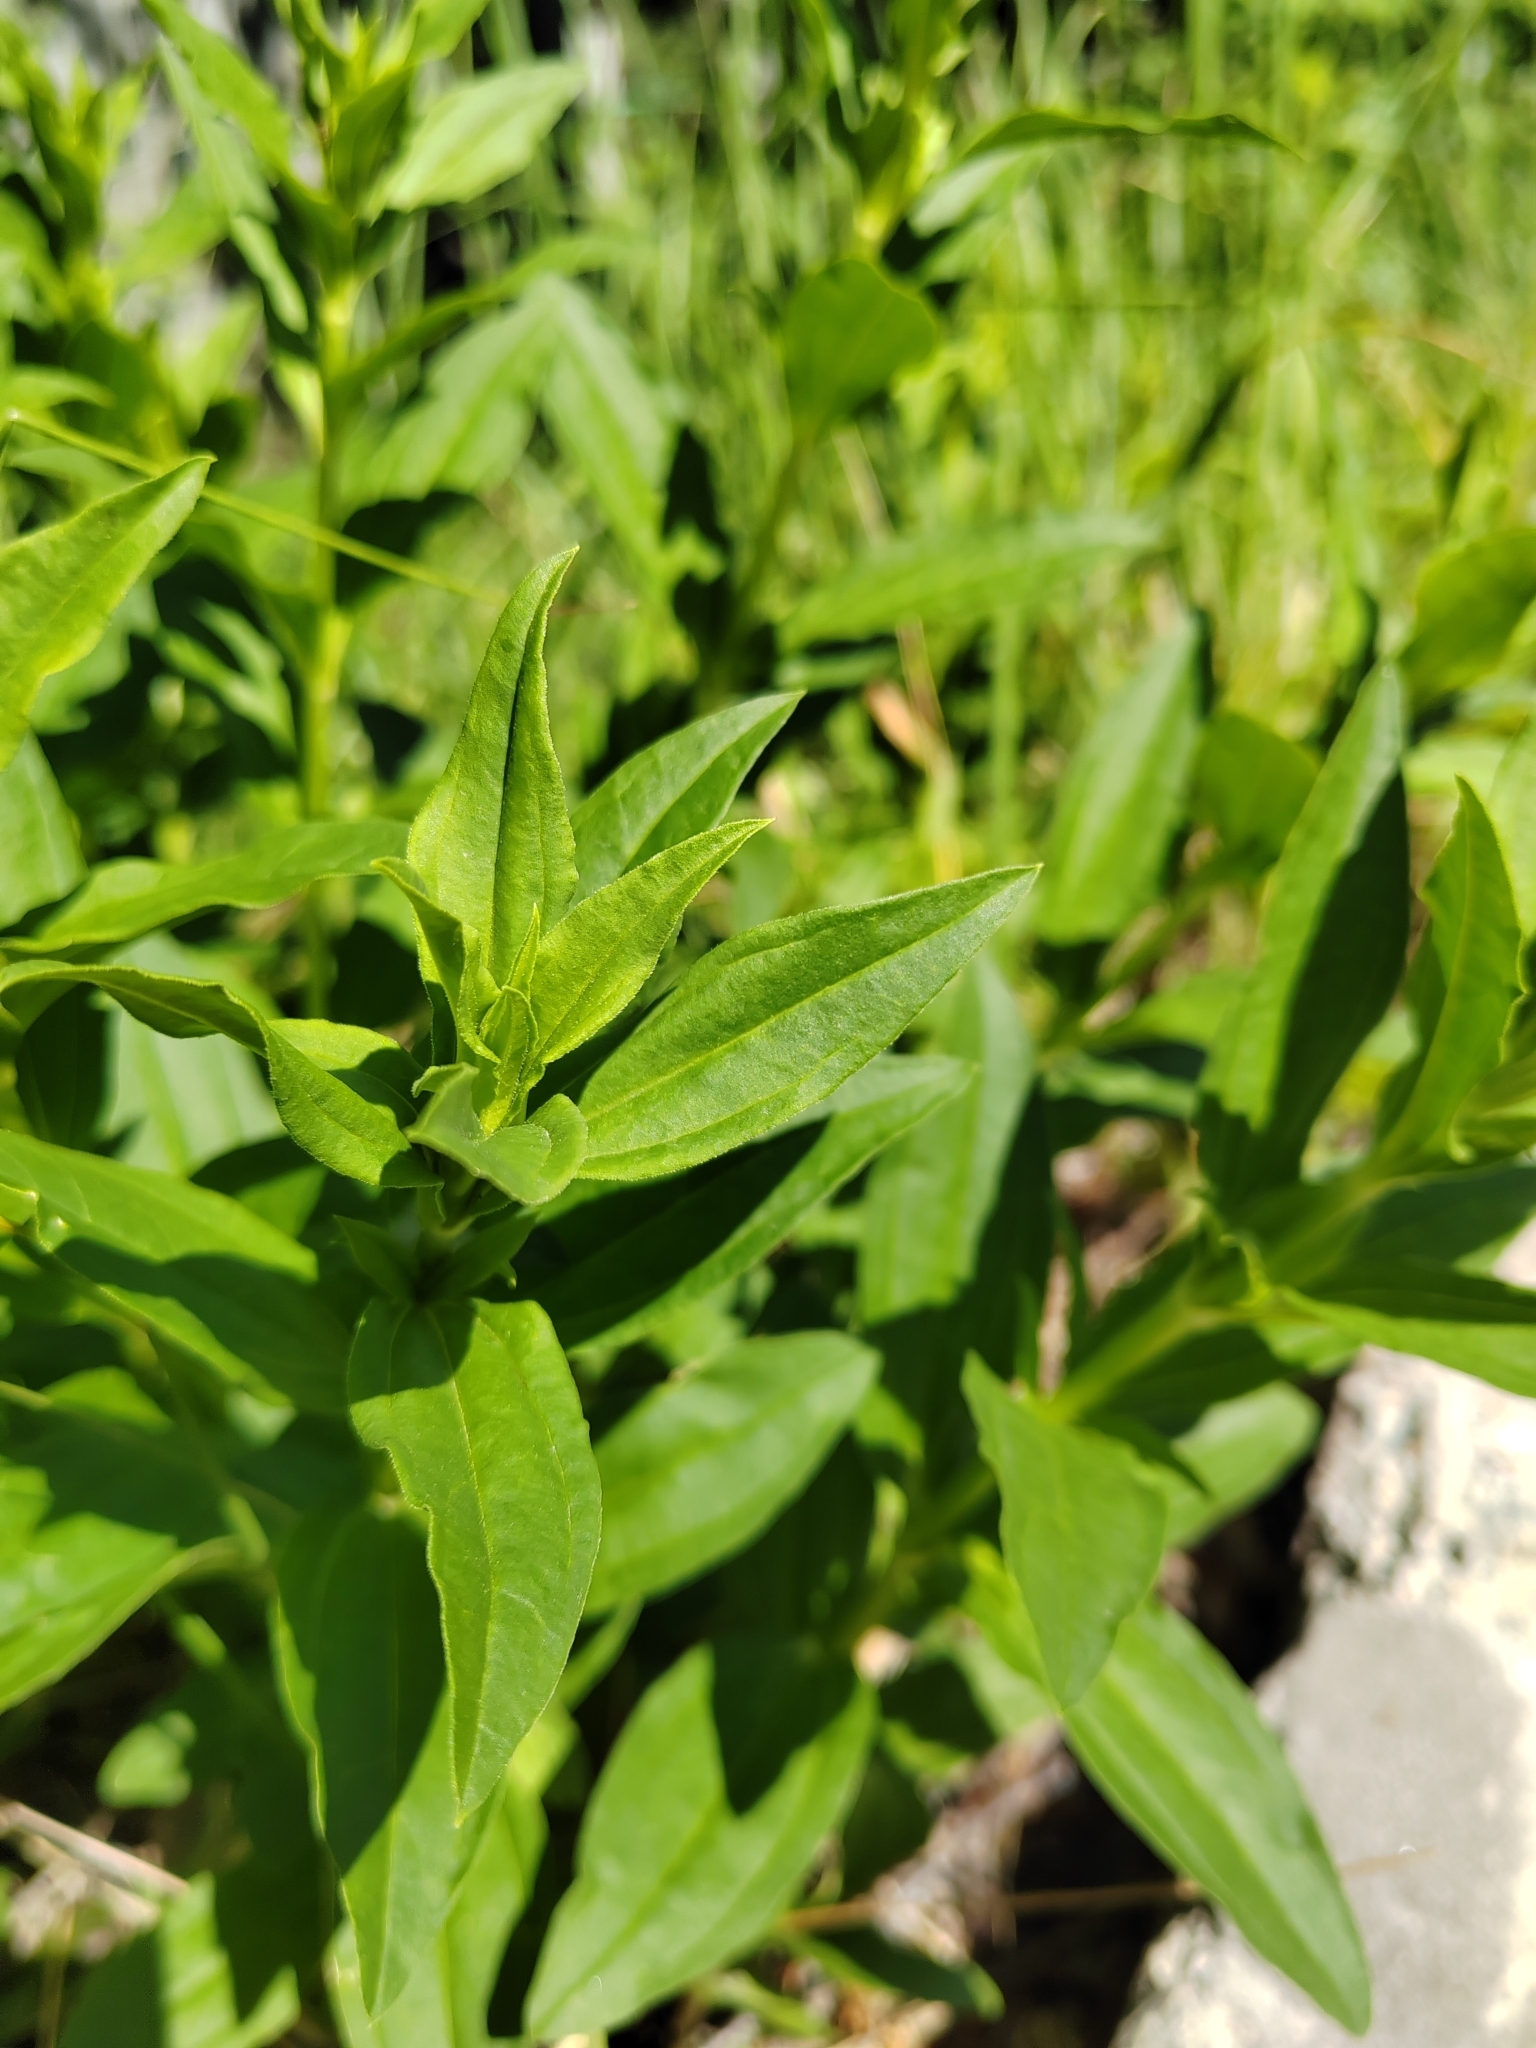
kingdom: Plantae
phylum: Tracheophyta
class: Magnoliopsida
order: Caryophyllales
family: Caryophyllaceae
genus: Saponaria
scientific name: Saponaria officinalis
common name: Soapwort
